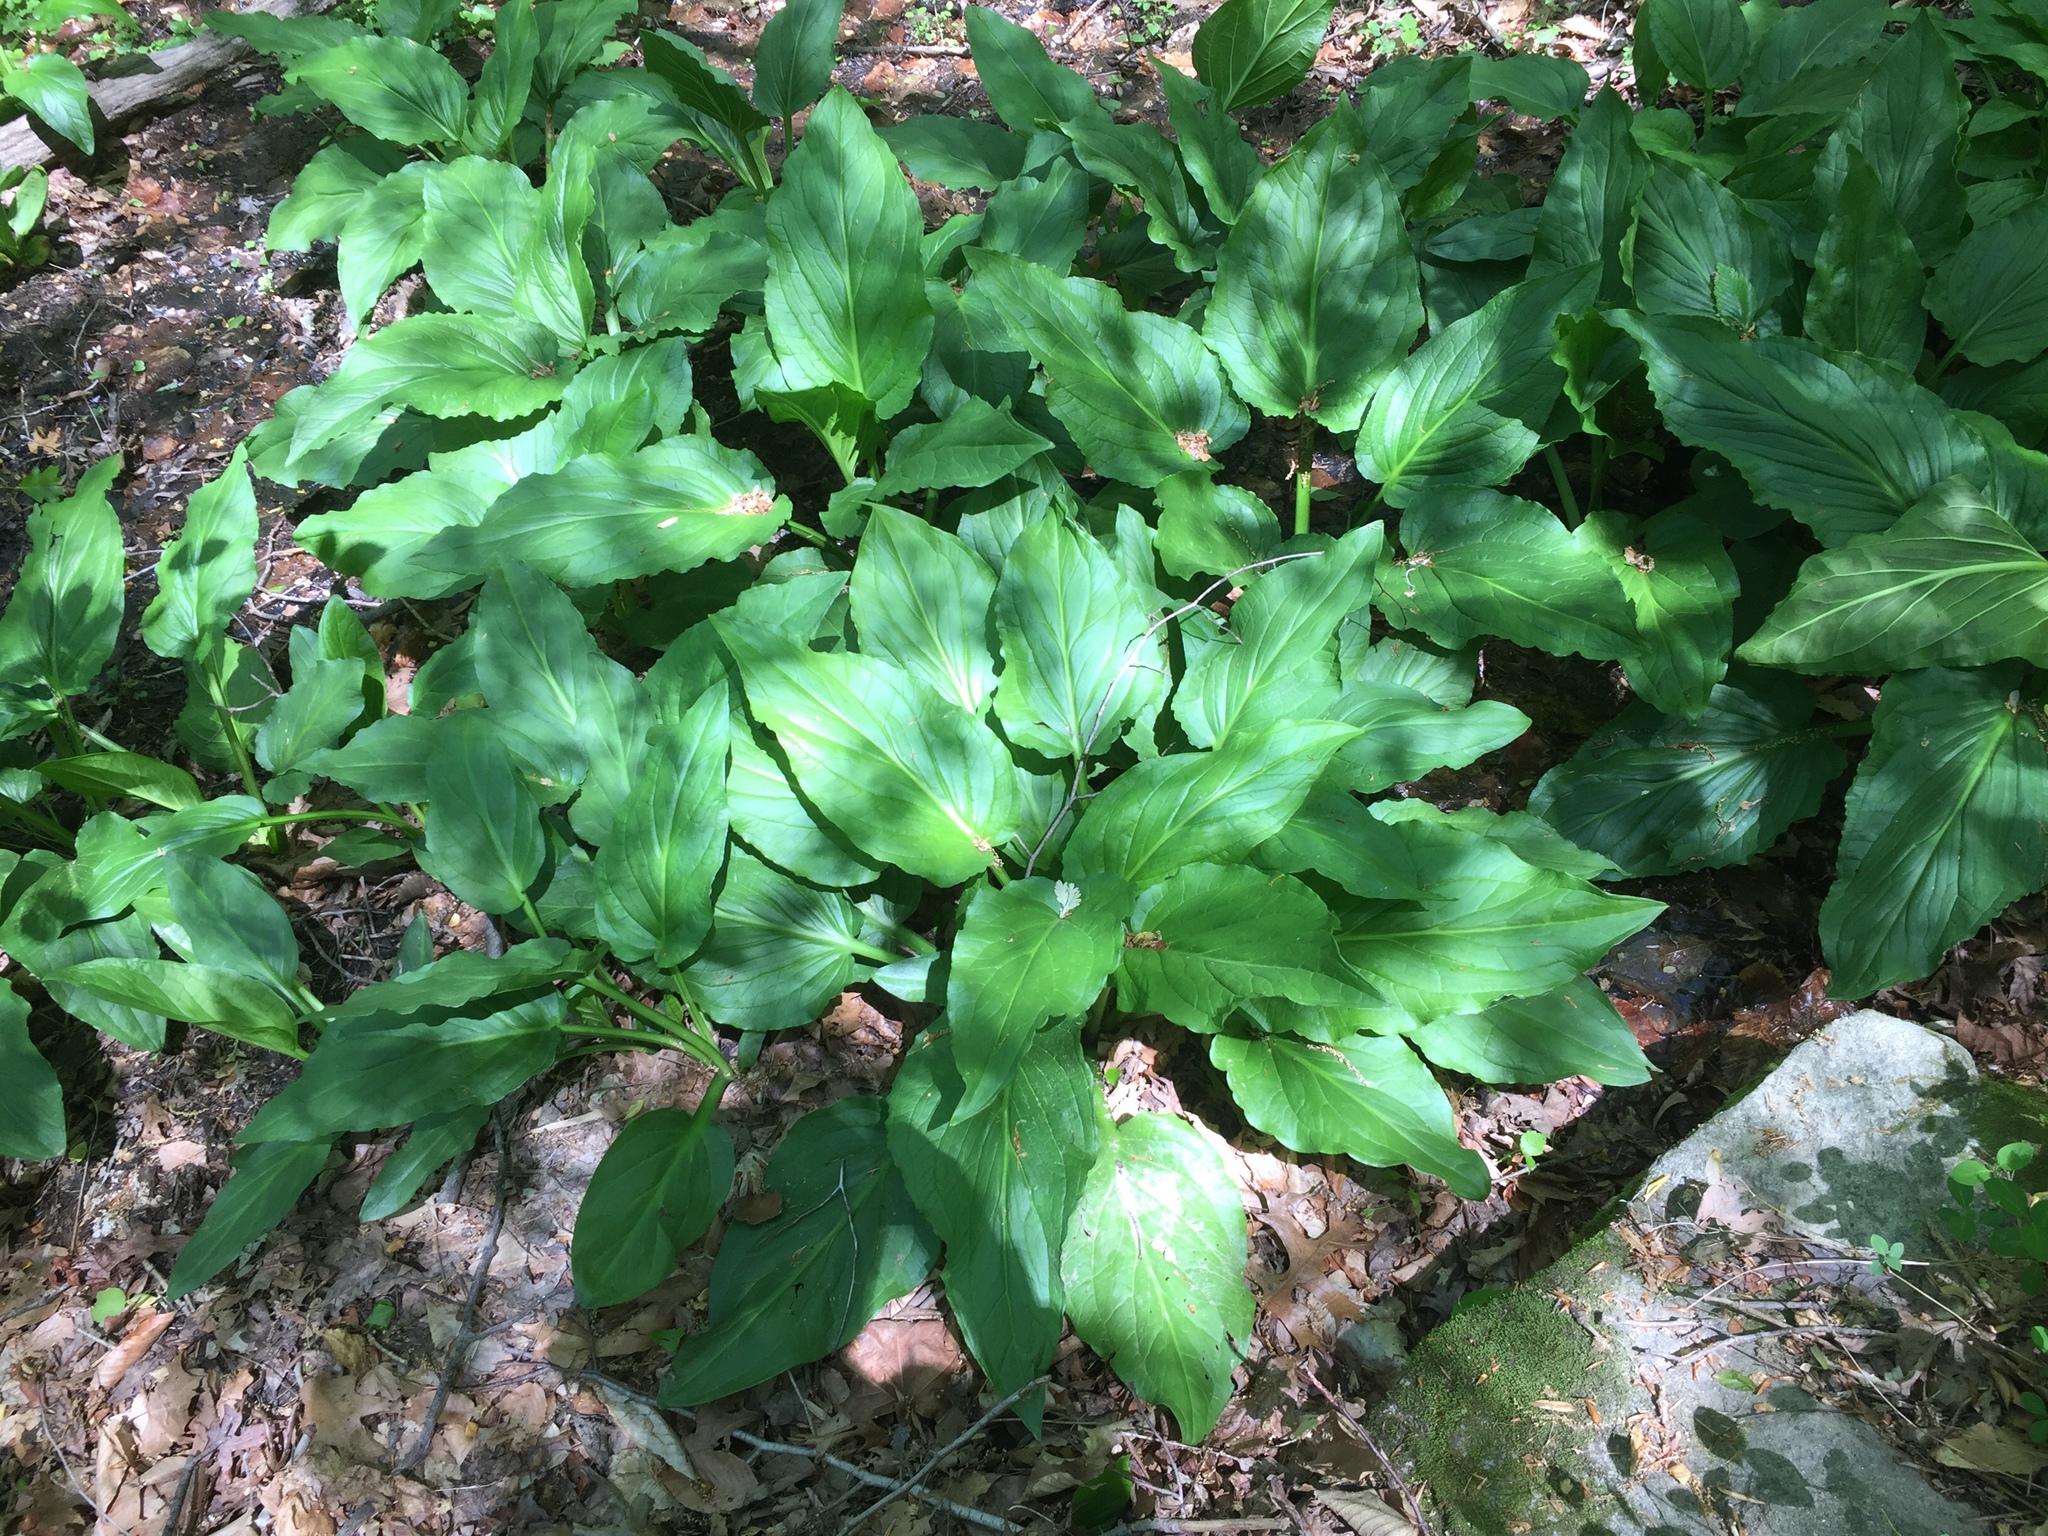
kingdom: Plantae
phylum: Tracheophyta
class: Liliopsida
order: Alismatales
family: Araceae
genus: Symplocarpus
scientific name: Symplocarpus foetidus
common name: Eastern skunk cabbage
